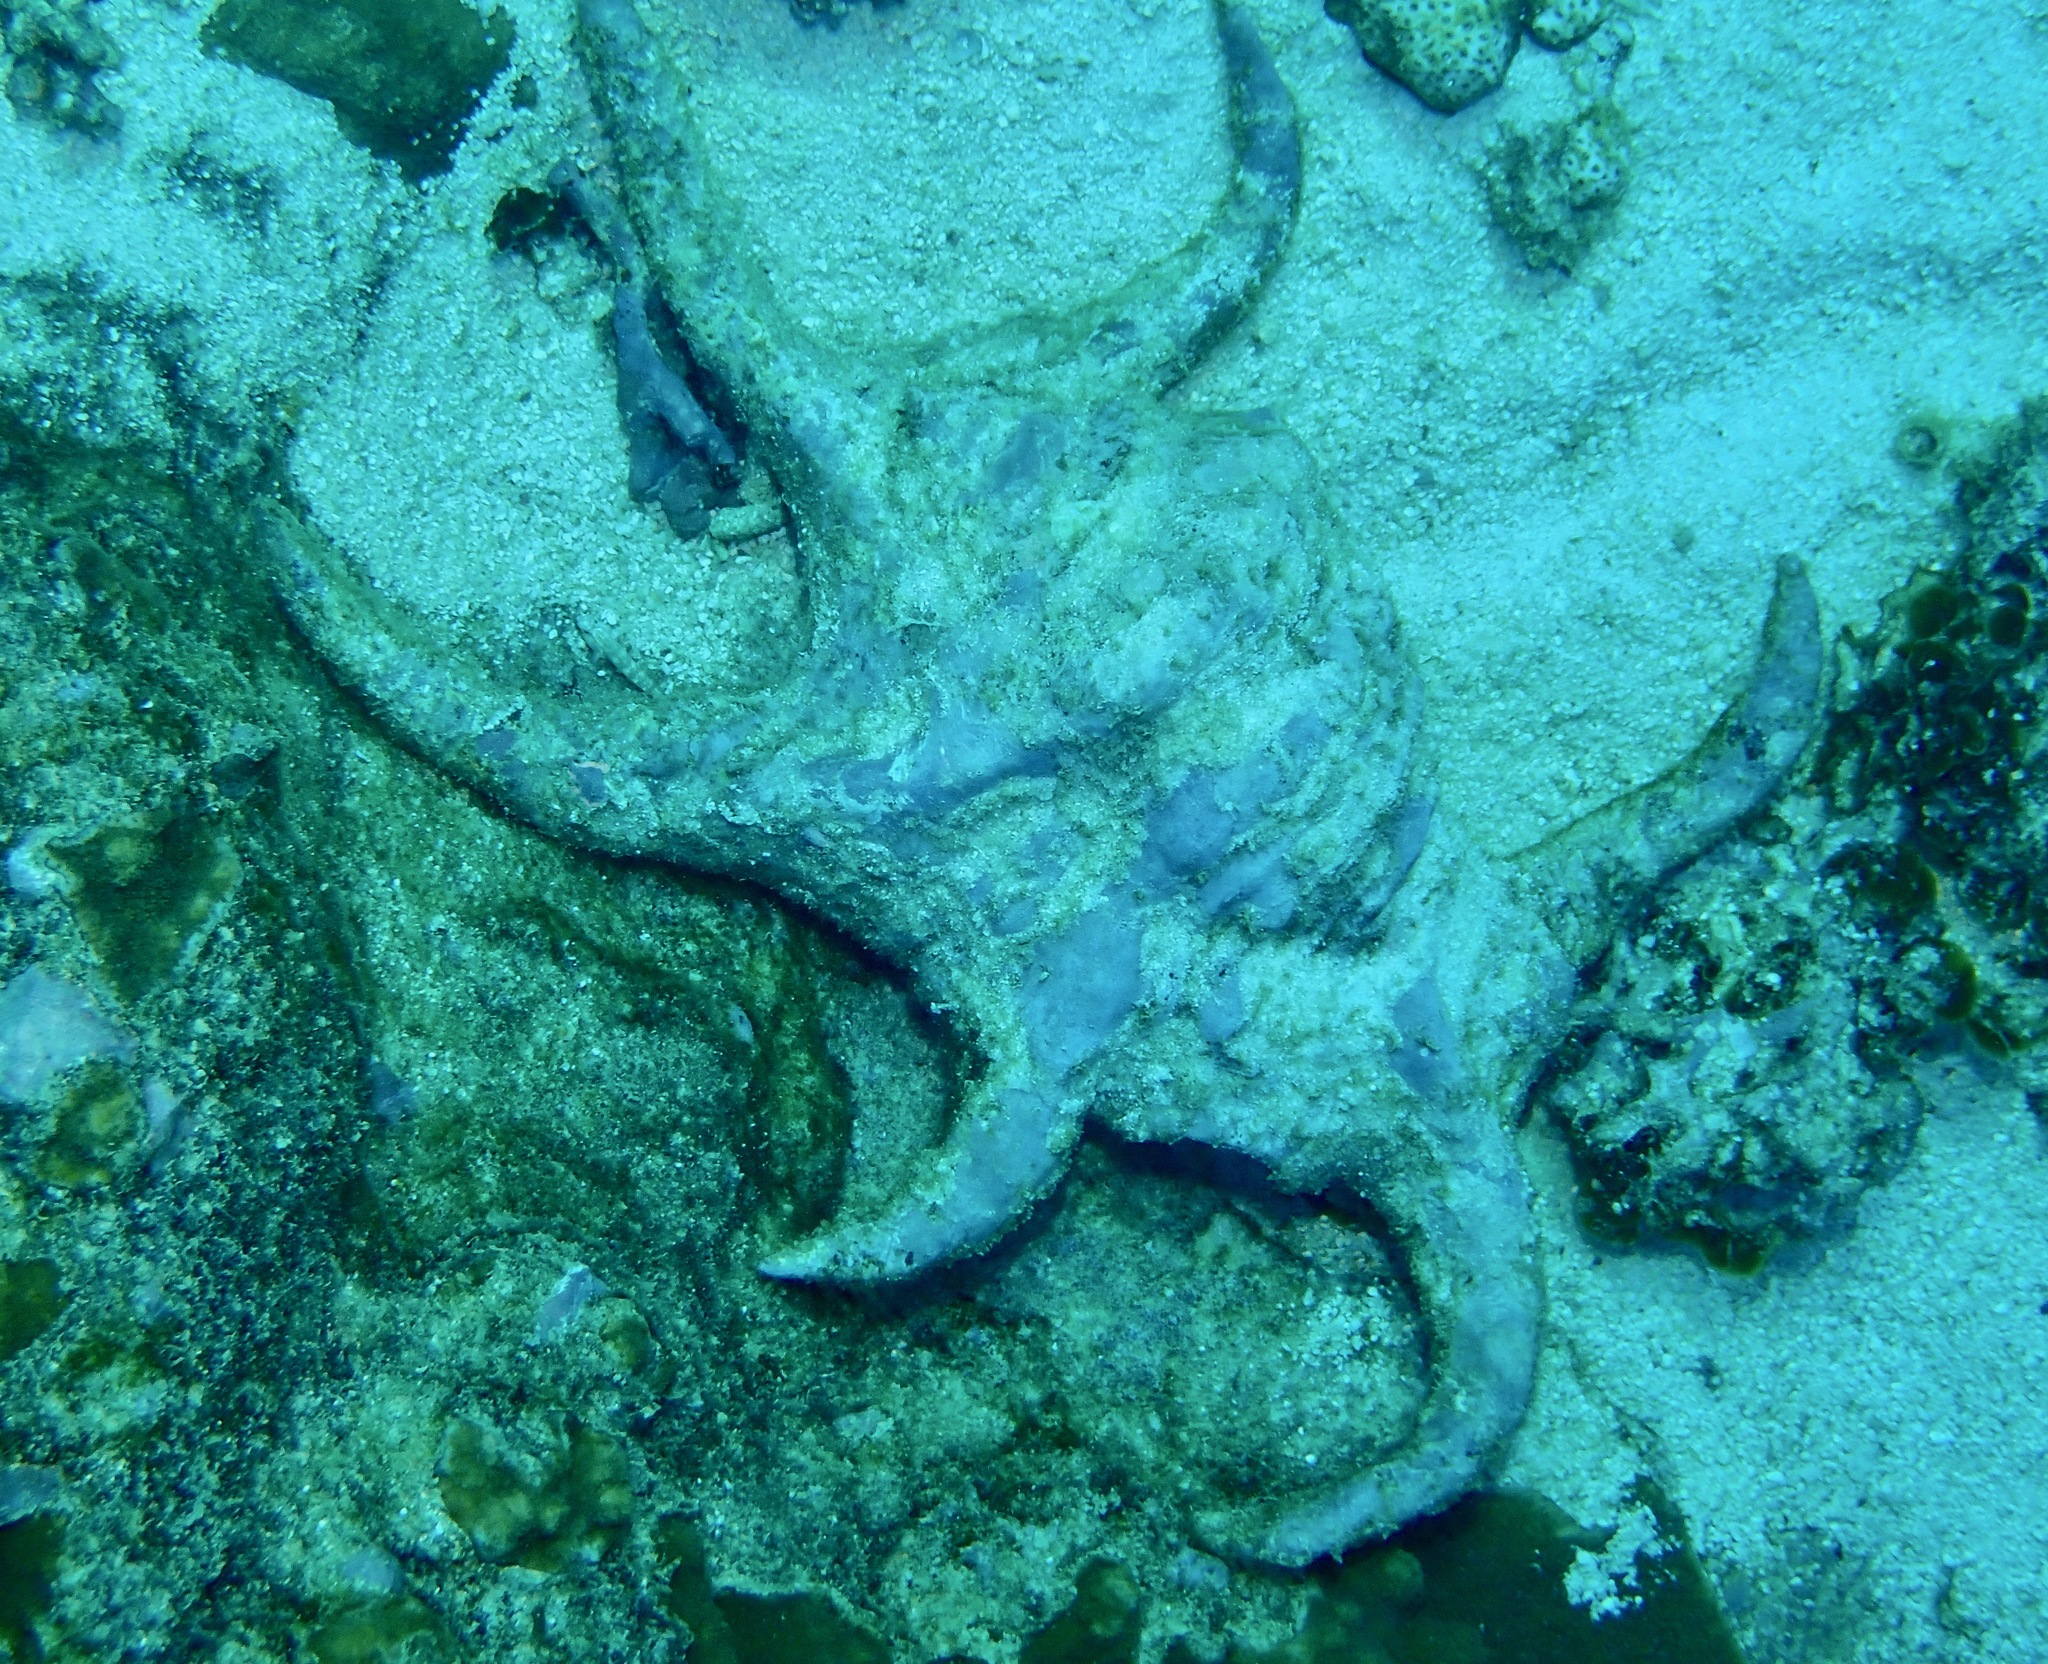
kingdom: Animalia
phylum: Mollusca
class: Gastropoda
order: Littorinimorpha
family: Strombidae
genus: Harpago
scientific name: Harpago chiragra
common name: Chiragra spider conch
